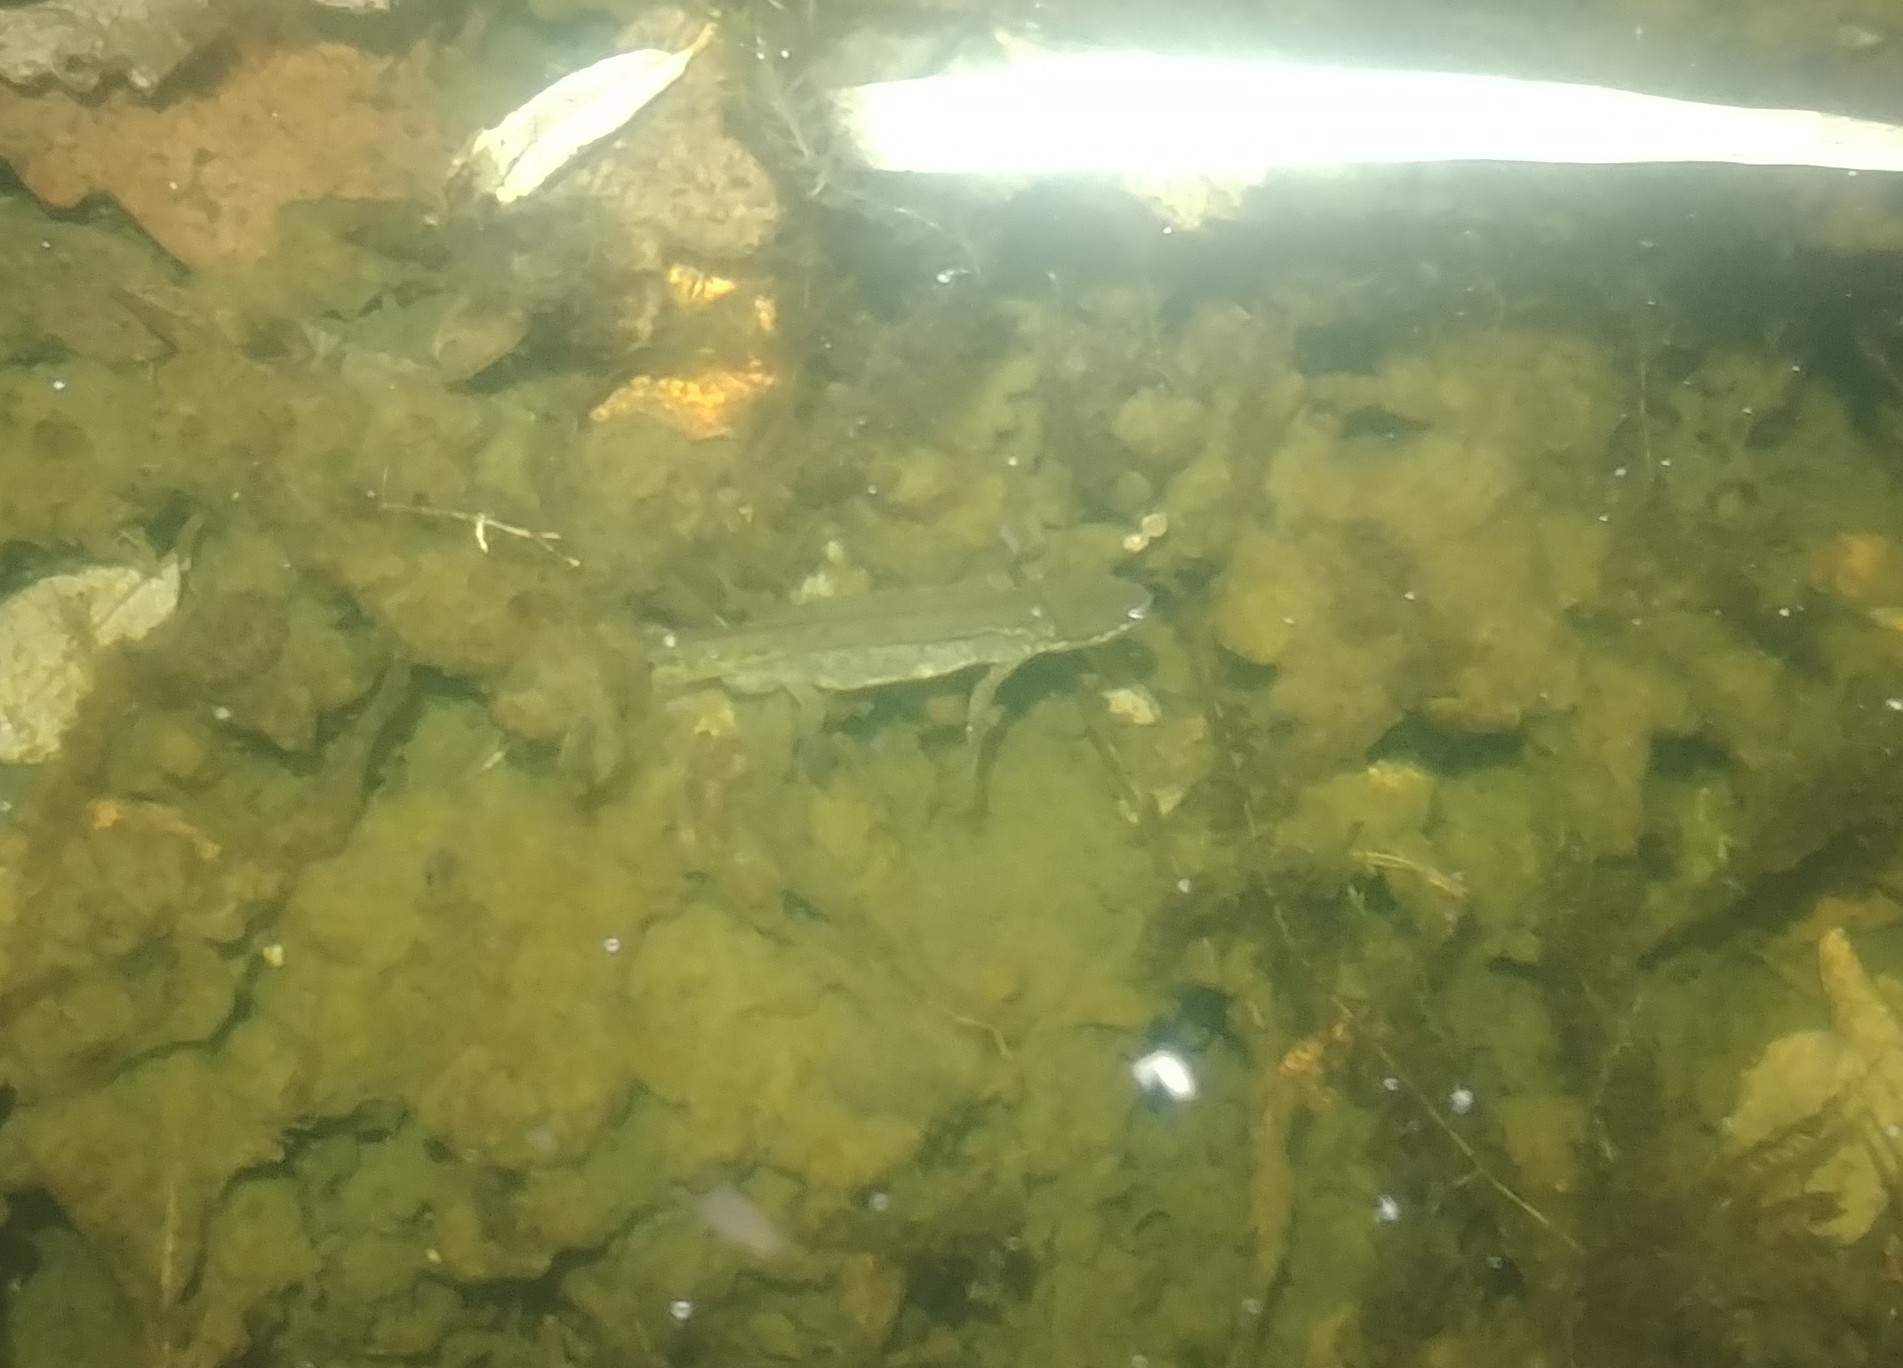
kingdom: Animalia
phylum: Chordata
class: Amphibia
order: Caudata
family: Salamandridae
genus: Lissotriton
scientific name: Lissotriton helveticus
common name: Palmate newt
